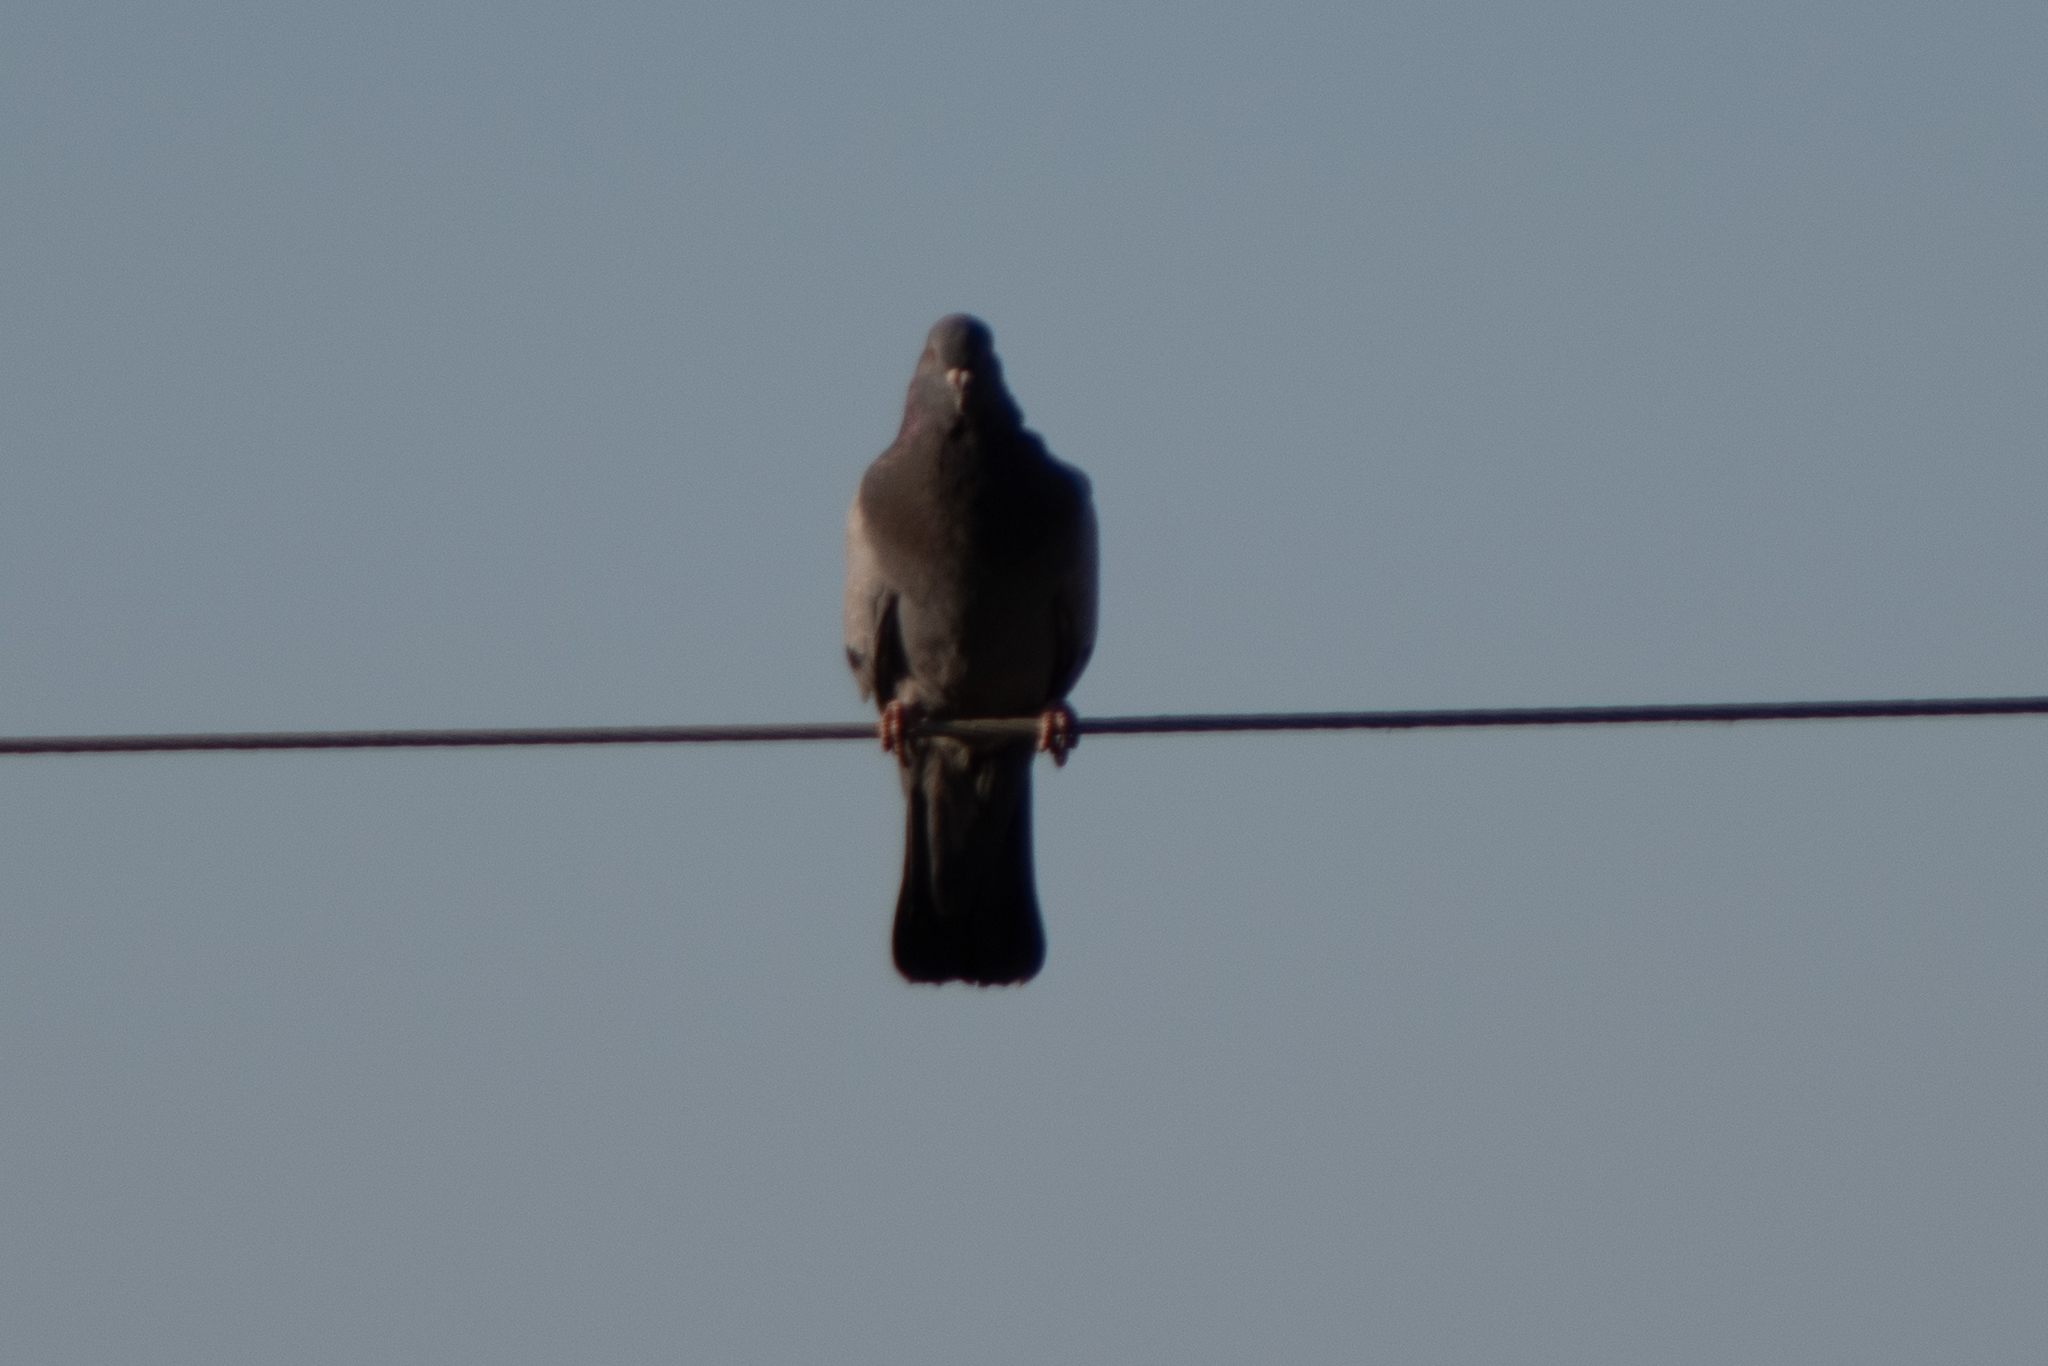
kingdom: Animalia
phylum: Chordata
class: Aves
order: Columbiformes
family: Columbidae
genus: Columba
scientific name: Columba livia
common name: Rock pigeon
